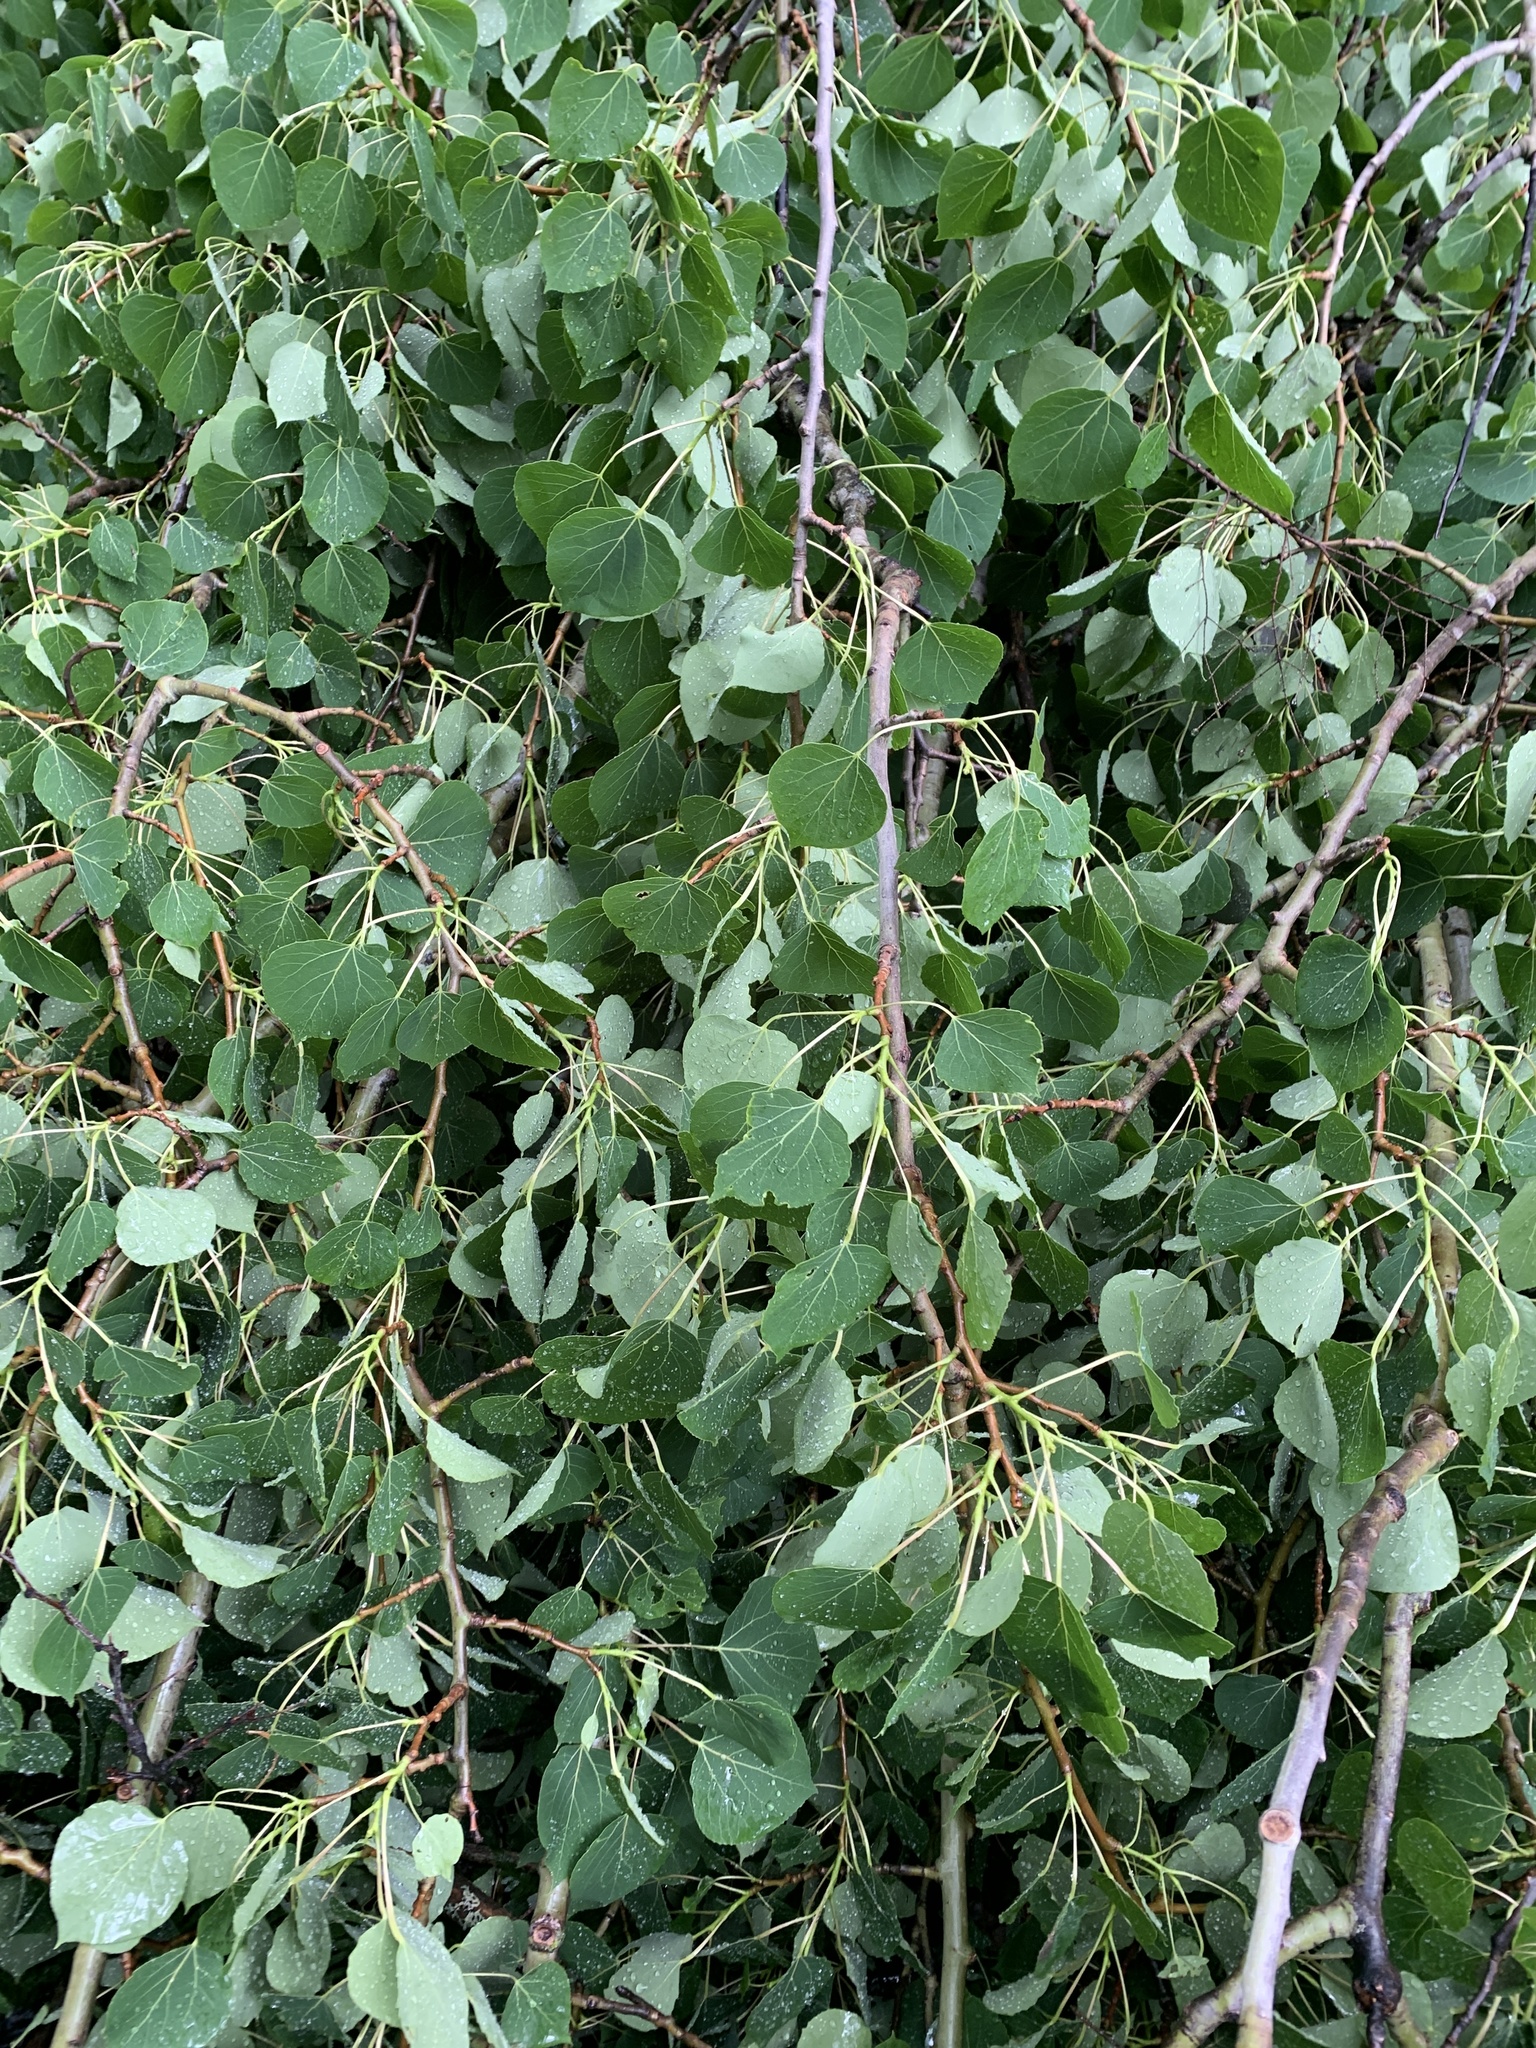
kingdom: Plantae
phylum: Tracheophyta
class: Magnoliopsida
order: Malpighiales
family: Salicaceae
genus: Populus
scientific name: Populus tremuloides
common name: Quaking aspen
